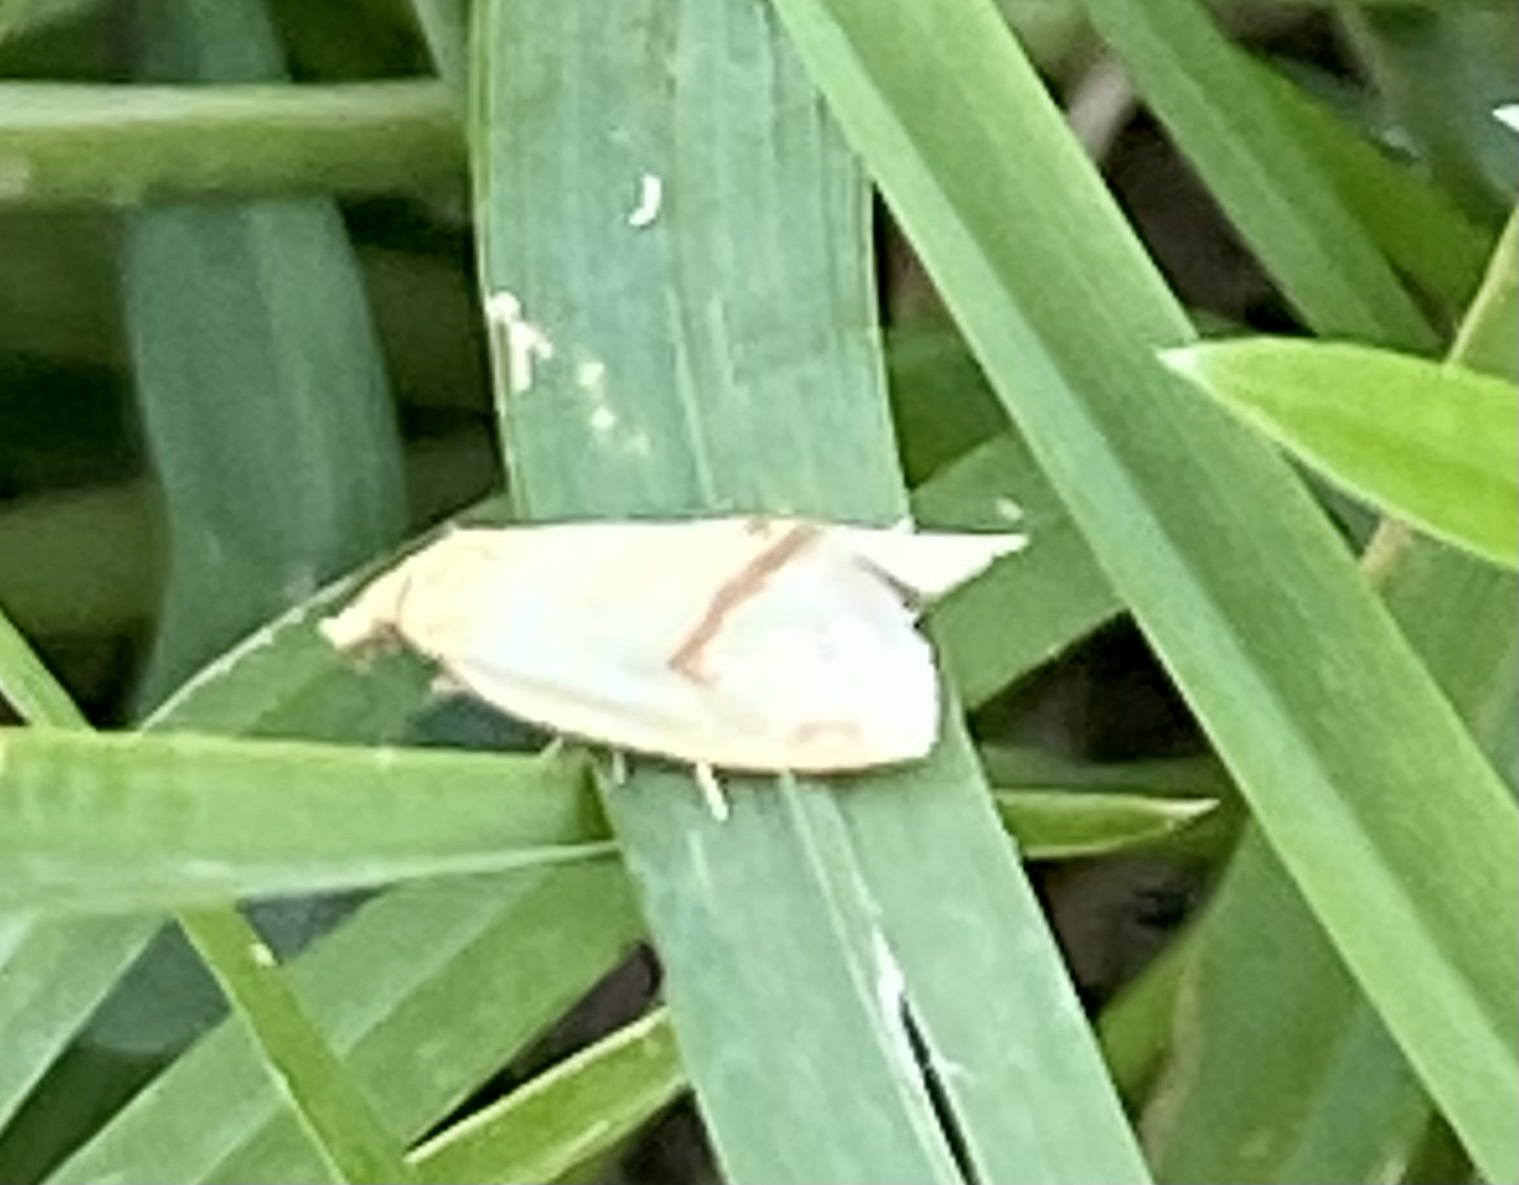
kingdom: Animalia
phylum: Arthropoda
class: Insecta
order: Lepidoptera
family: Tortricidae
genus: Agapeta
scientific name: Agapeta hamana
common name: Common yellow conch
